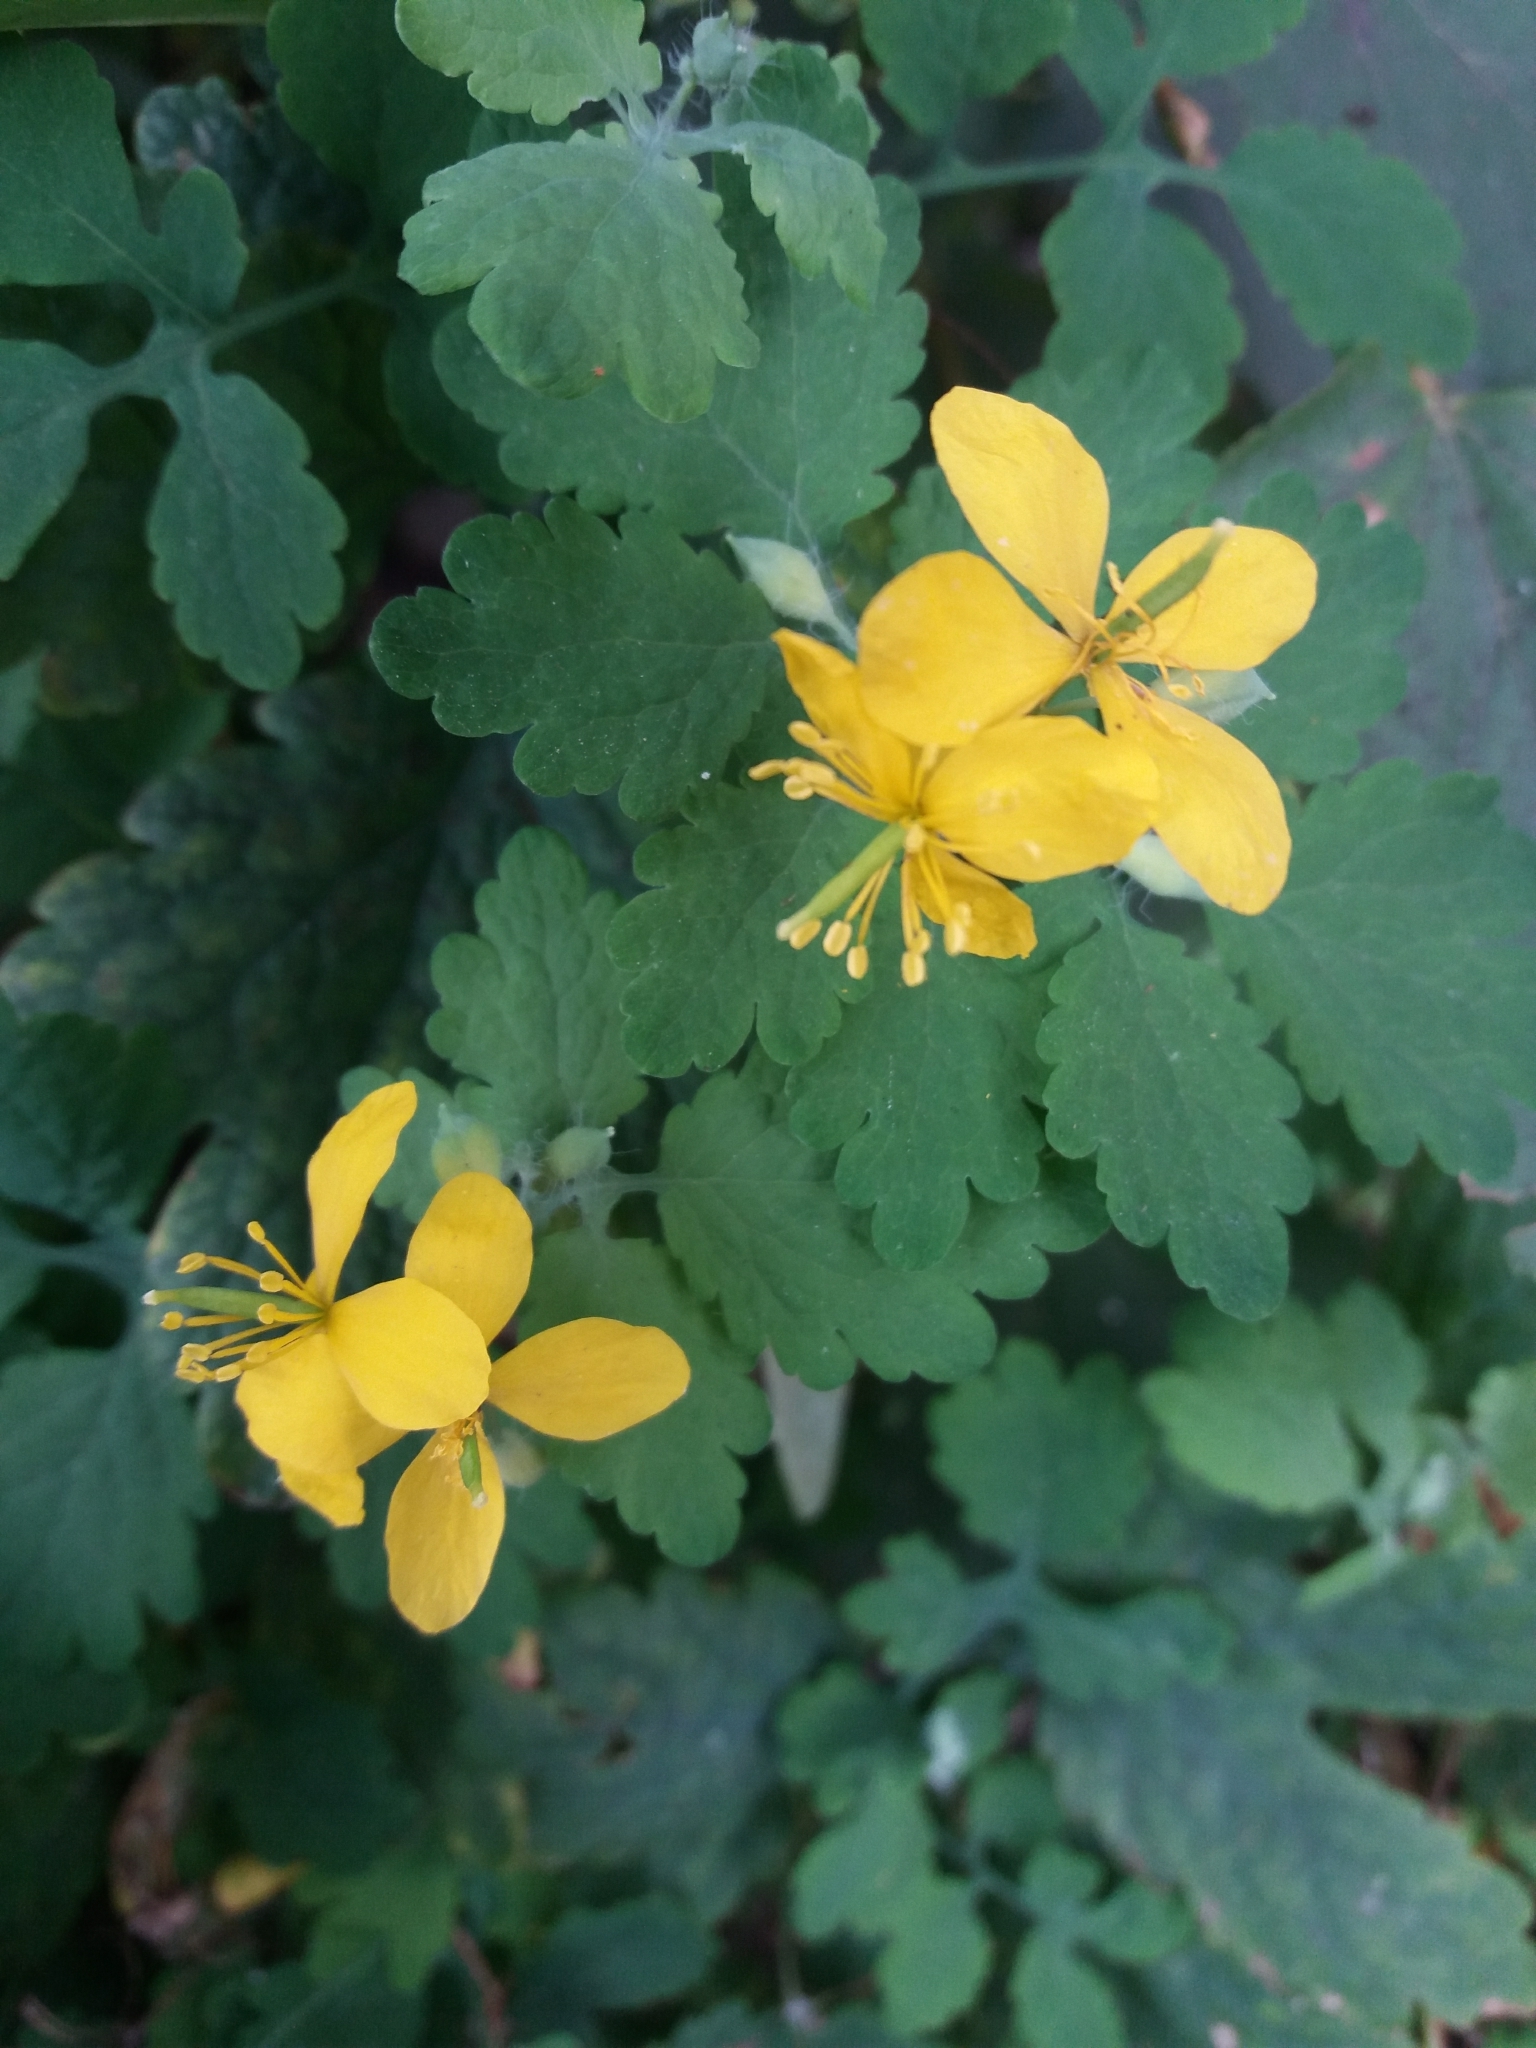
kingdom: Plantae
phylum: Tracheophyta
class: Magnoliopsida
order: Ranunculales
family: Papaveraceae
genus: Chelidonium
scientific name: Chelidonium majus
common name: Greater celandine
